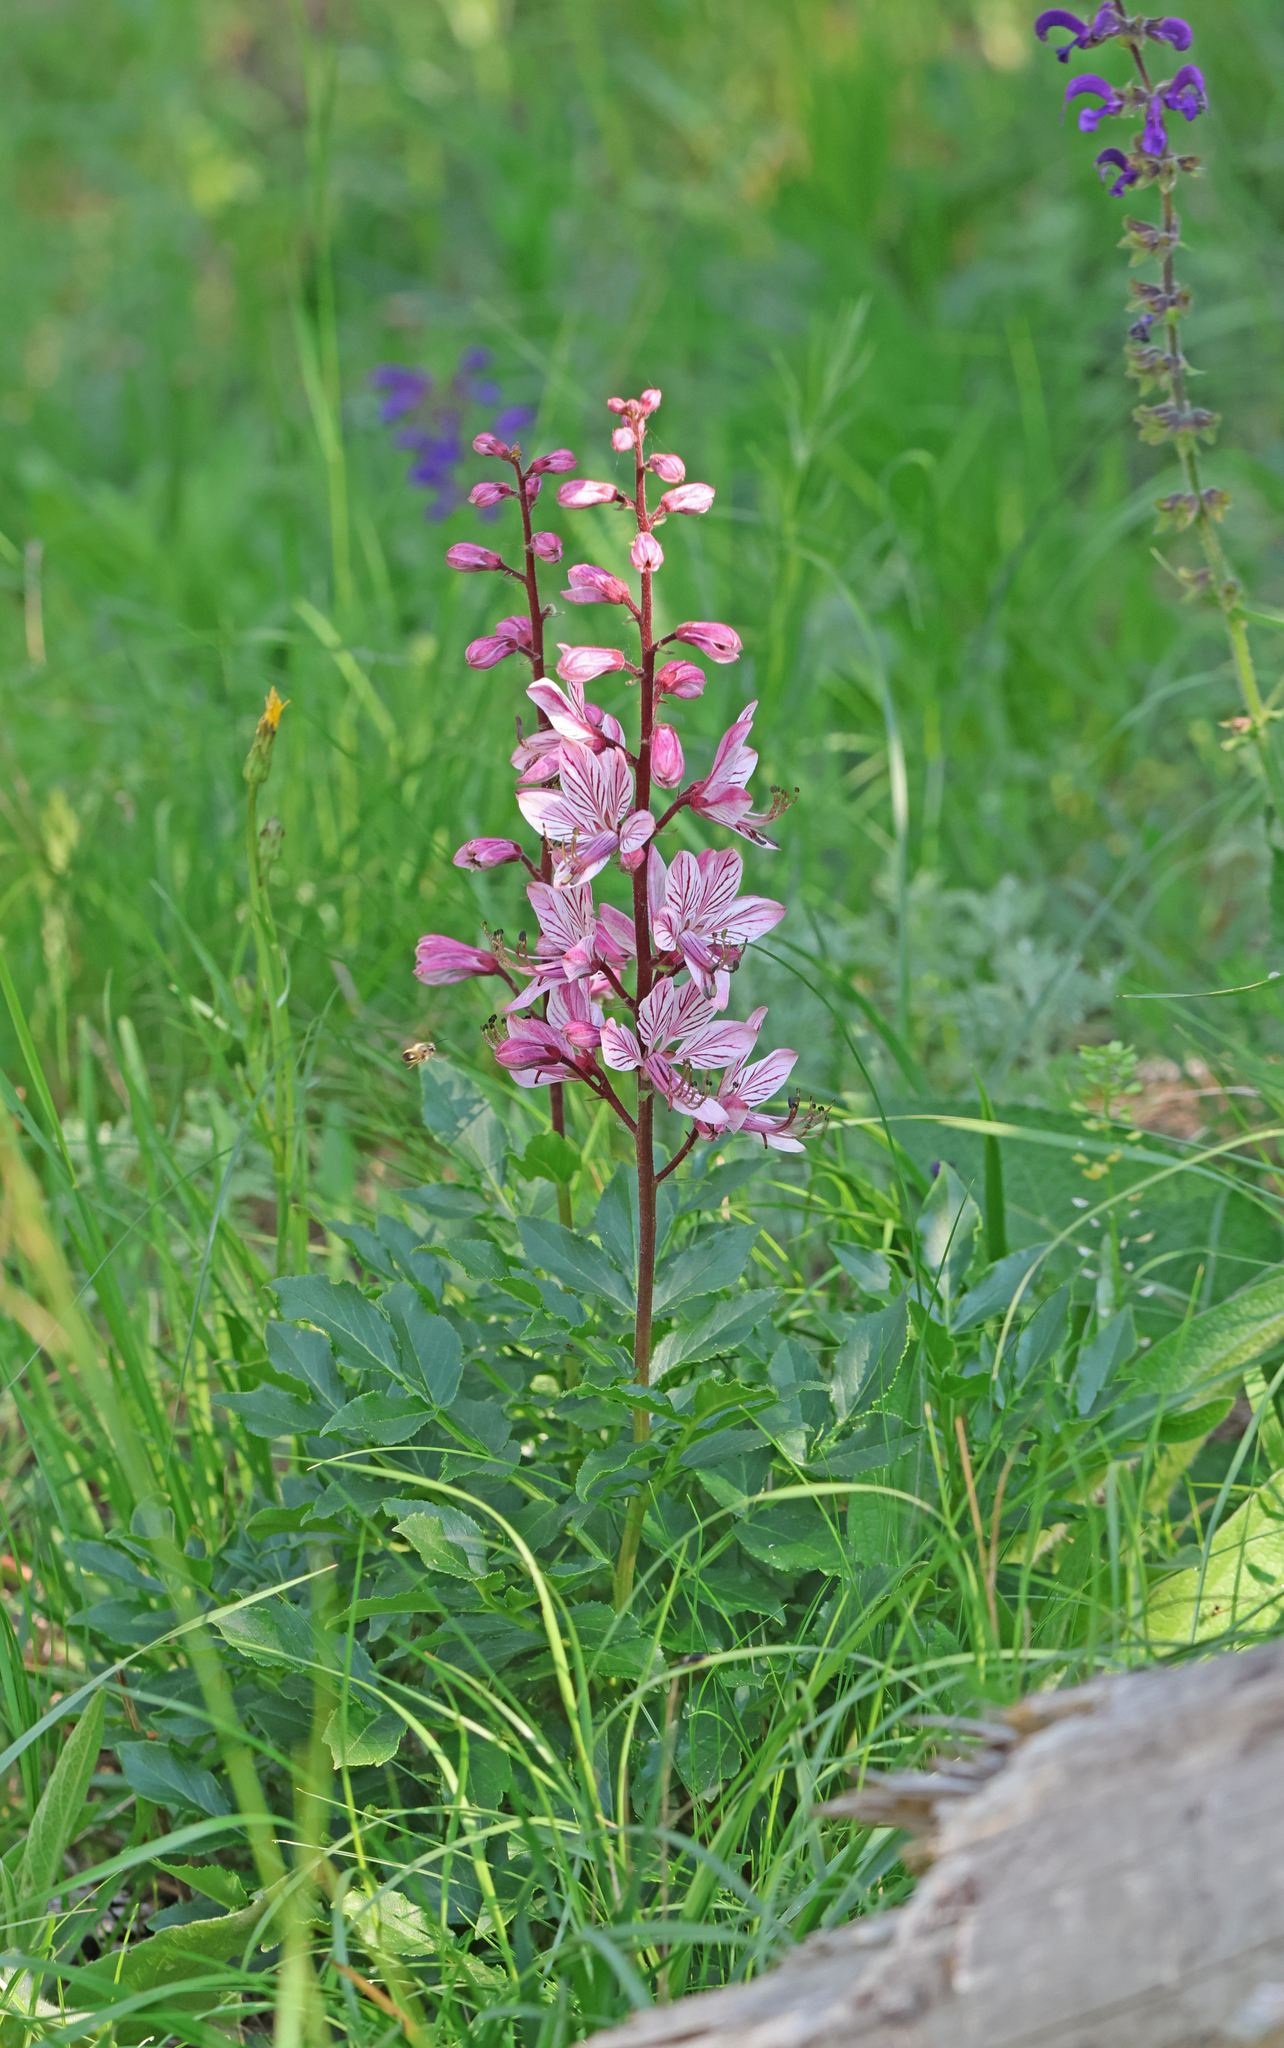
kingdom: Plantae
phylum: Tracheophyta
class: Magnoliopsida
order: Sapindales
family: Rutaceae
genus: Dictamnus
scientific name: Dictamnus albus
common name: Gasplant
